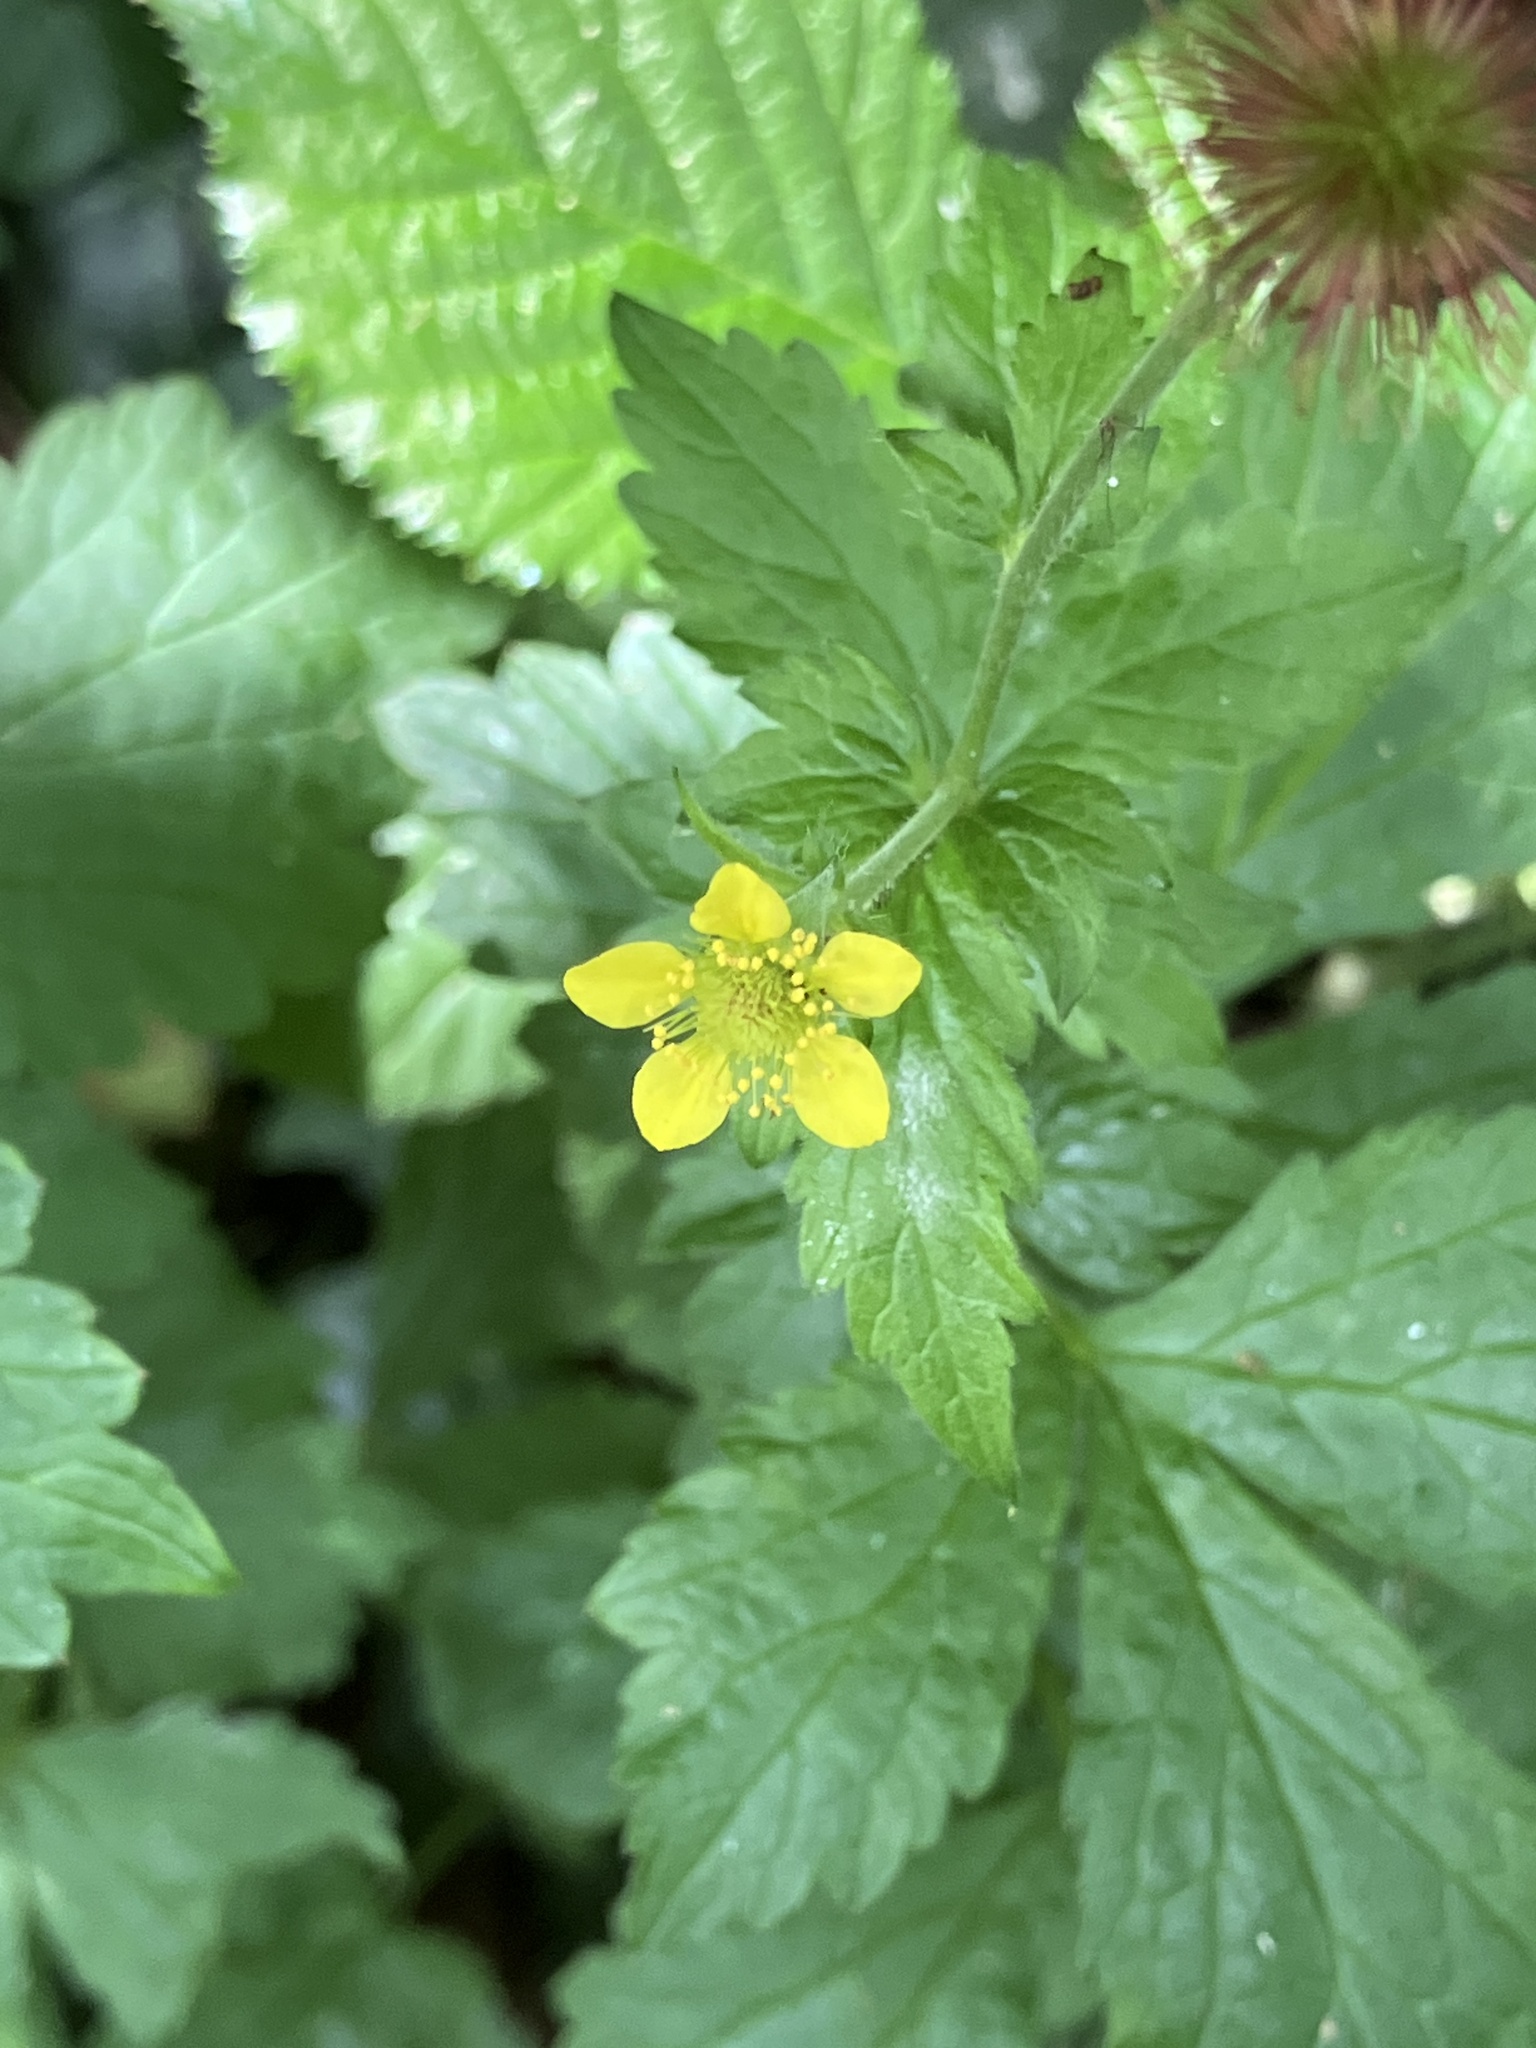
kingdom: Plantae
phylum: Tracheophyta
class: Magnoliopsida
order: Rosales
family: Rosaceae
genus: Geum
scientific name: Geum urbanum
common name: Wood avens
